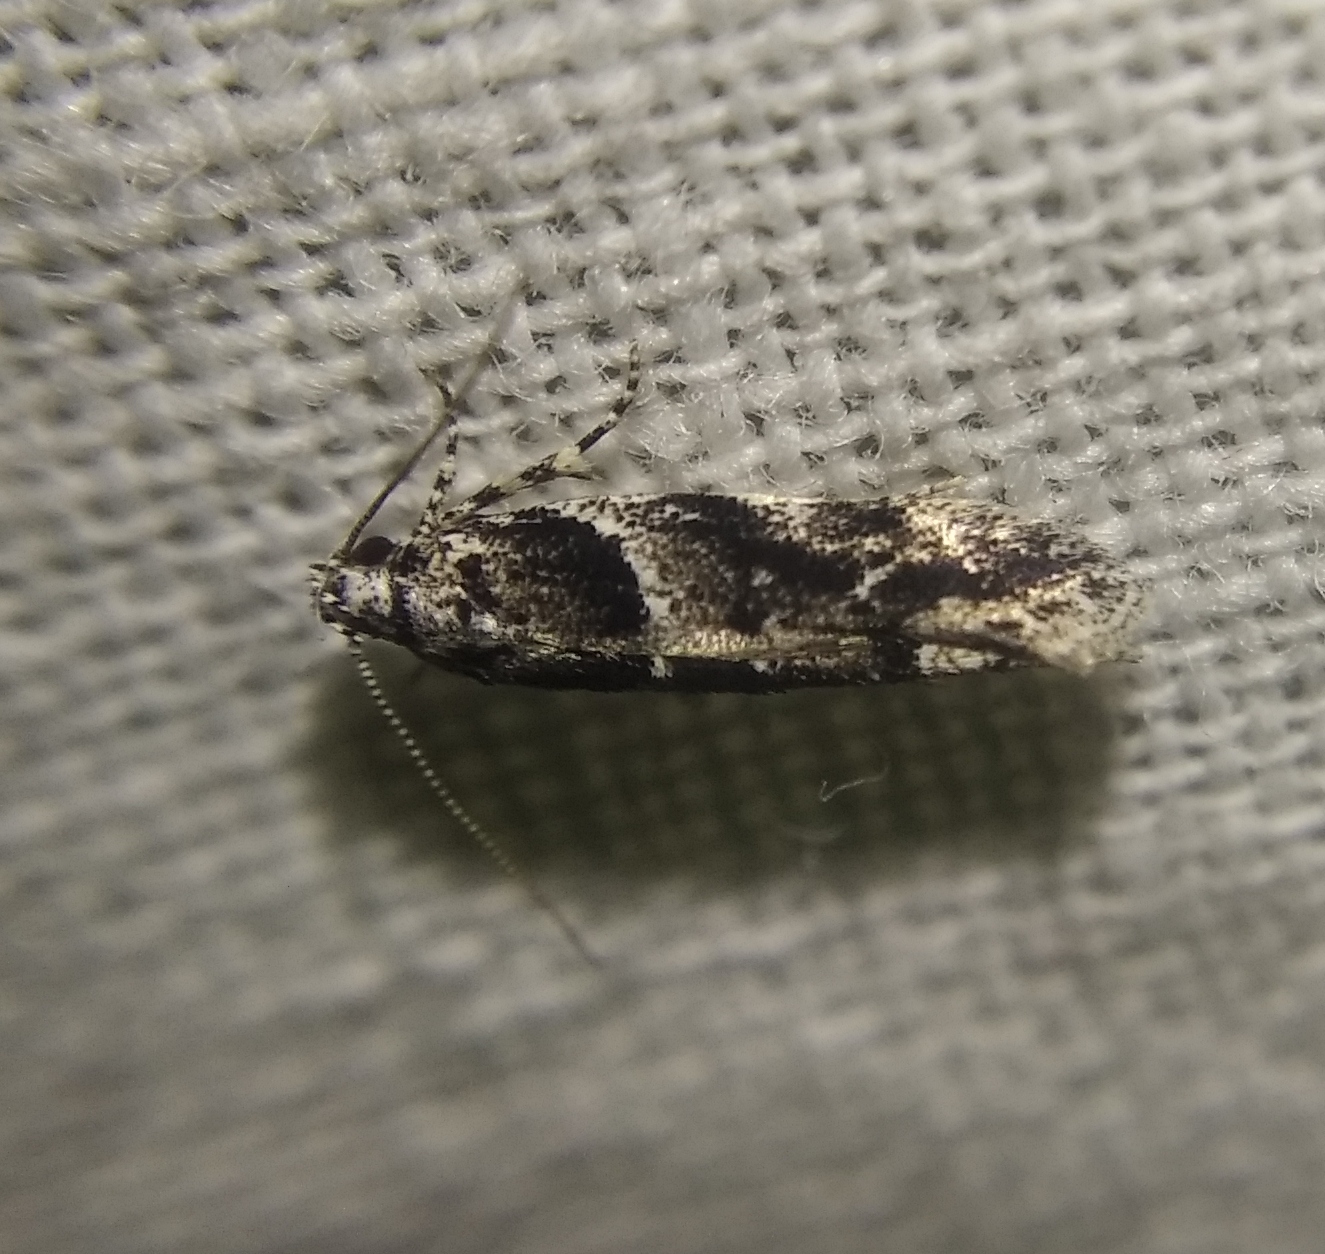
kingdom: Animalia
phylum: Arthropoda
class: Insecta
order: Lepidoptera
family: Gelechiidae
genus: Recurvaria
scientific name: Recurvaria nanella
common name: Gelechiid moth
